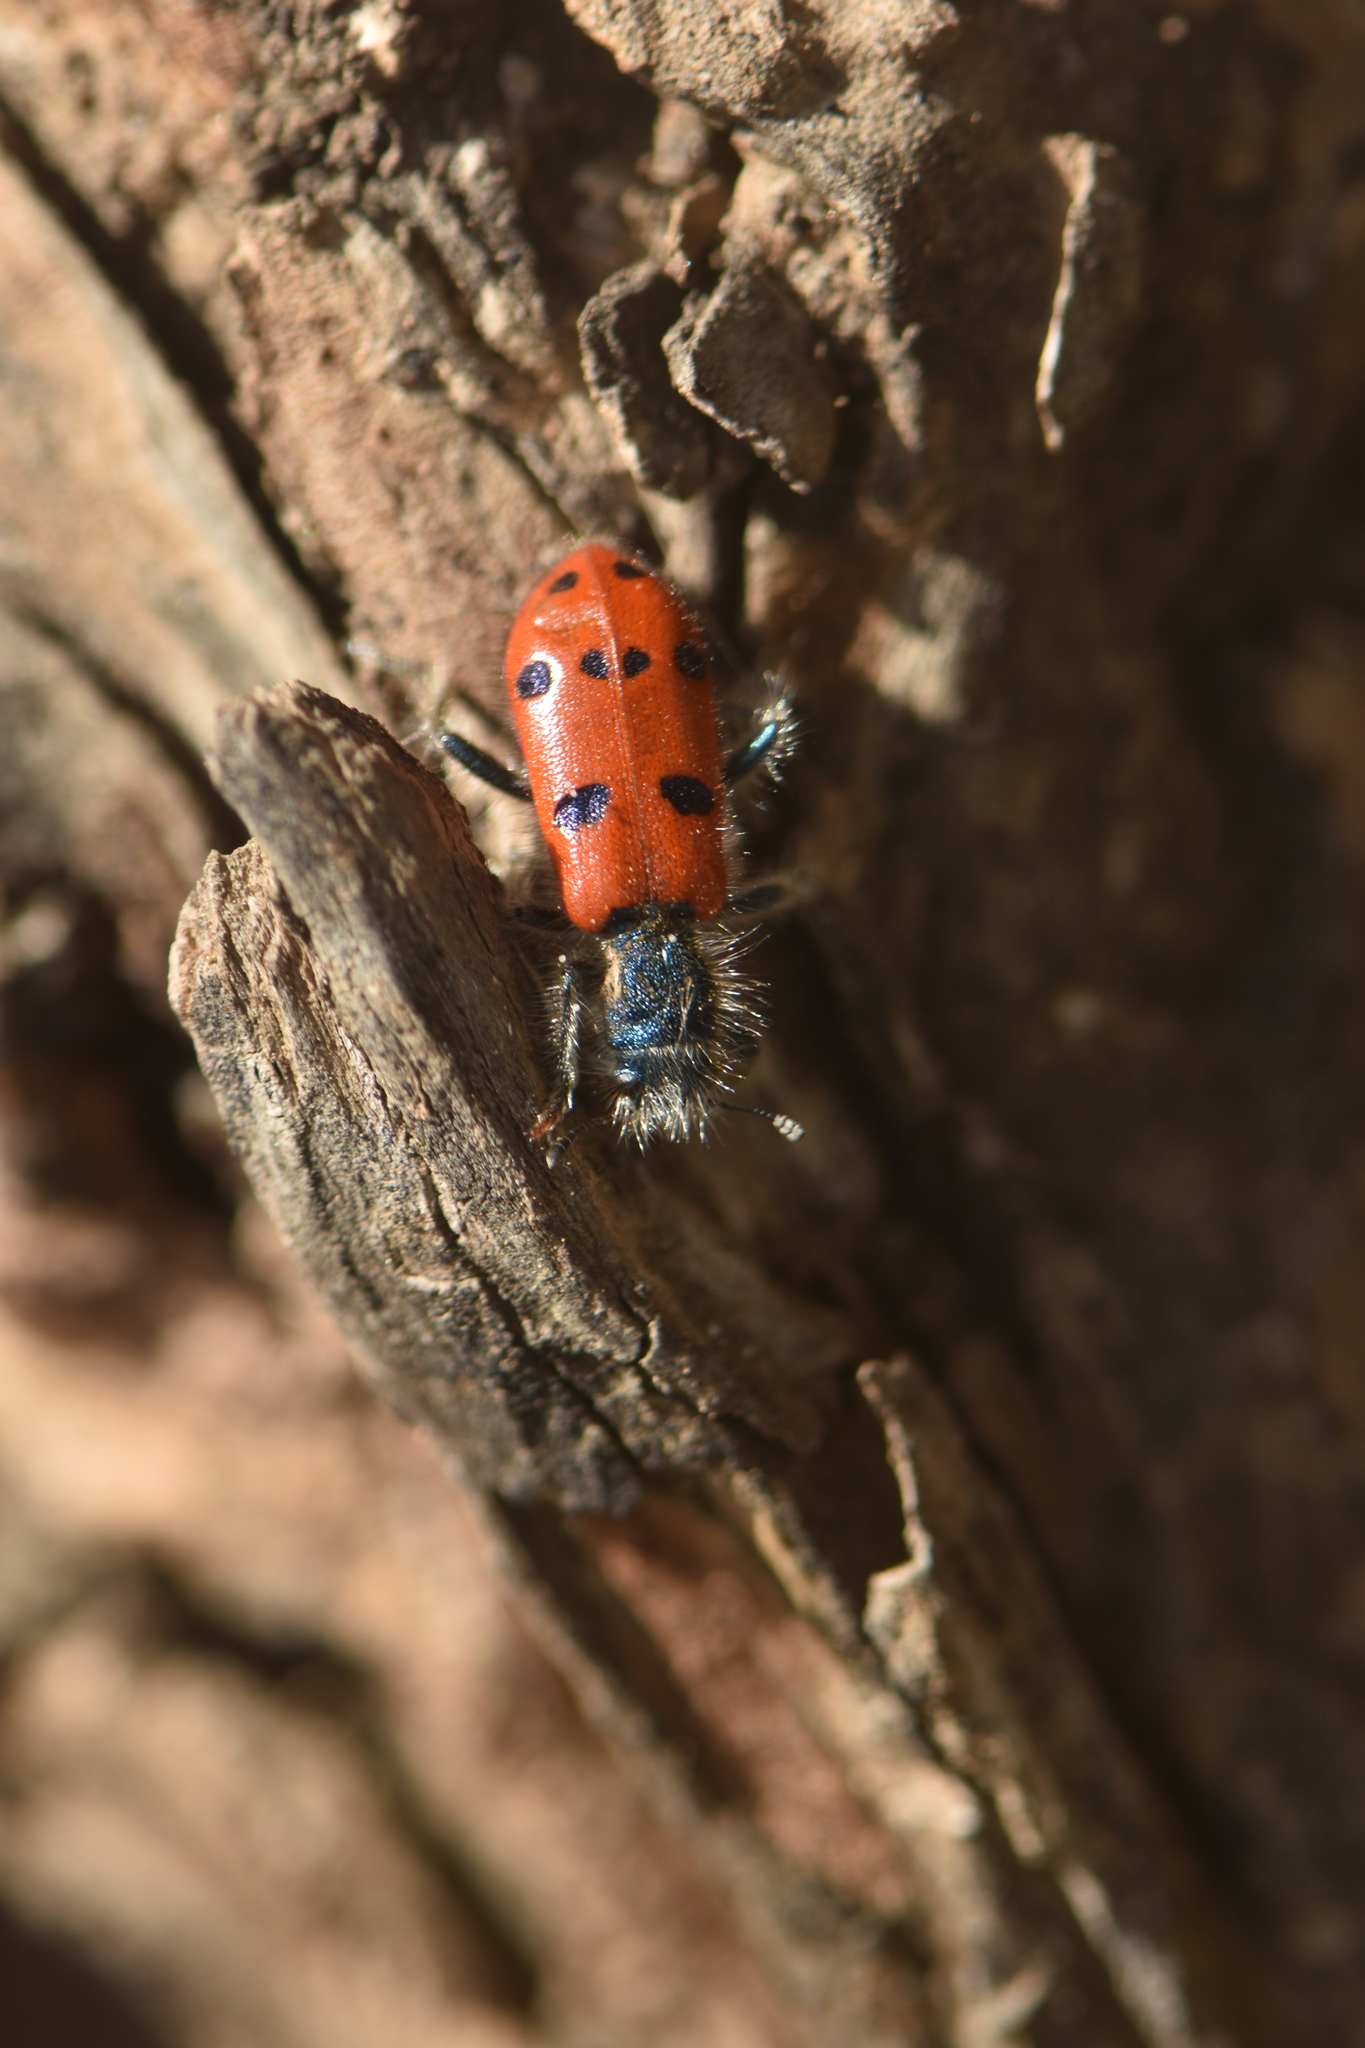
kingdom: Animalia
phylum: Arthropoda
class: Insecta
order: Coleoptera
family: Cleridae
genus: Trichodes
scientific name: Trichodes octopunctatus
